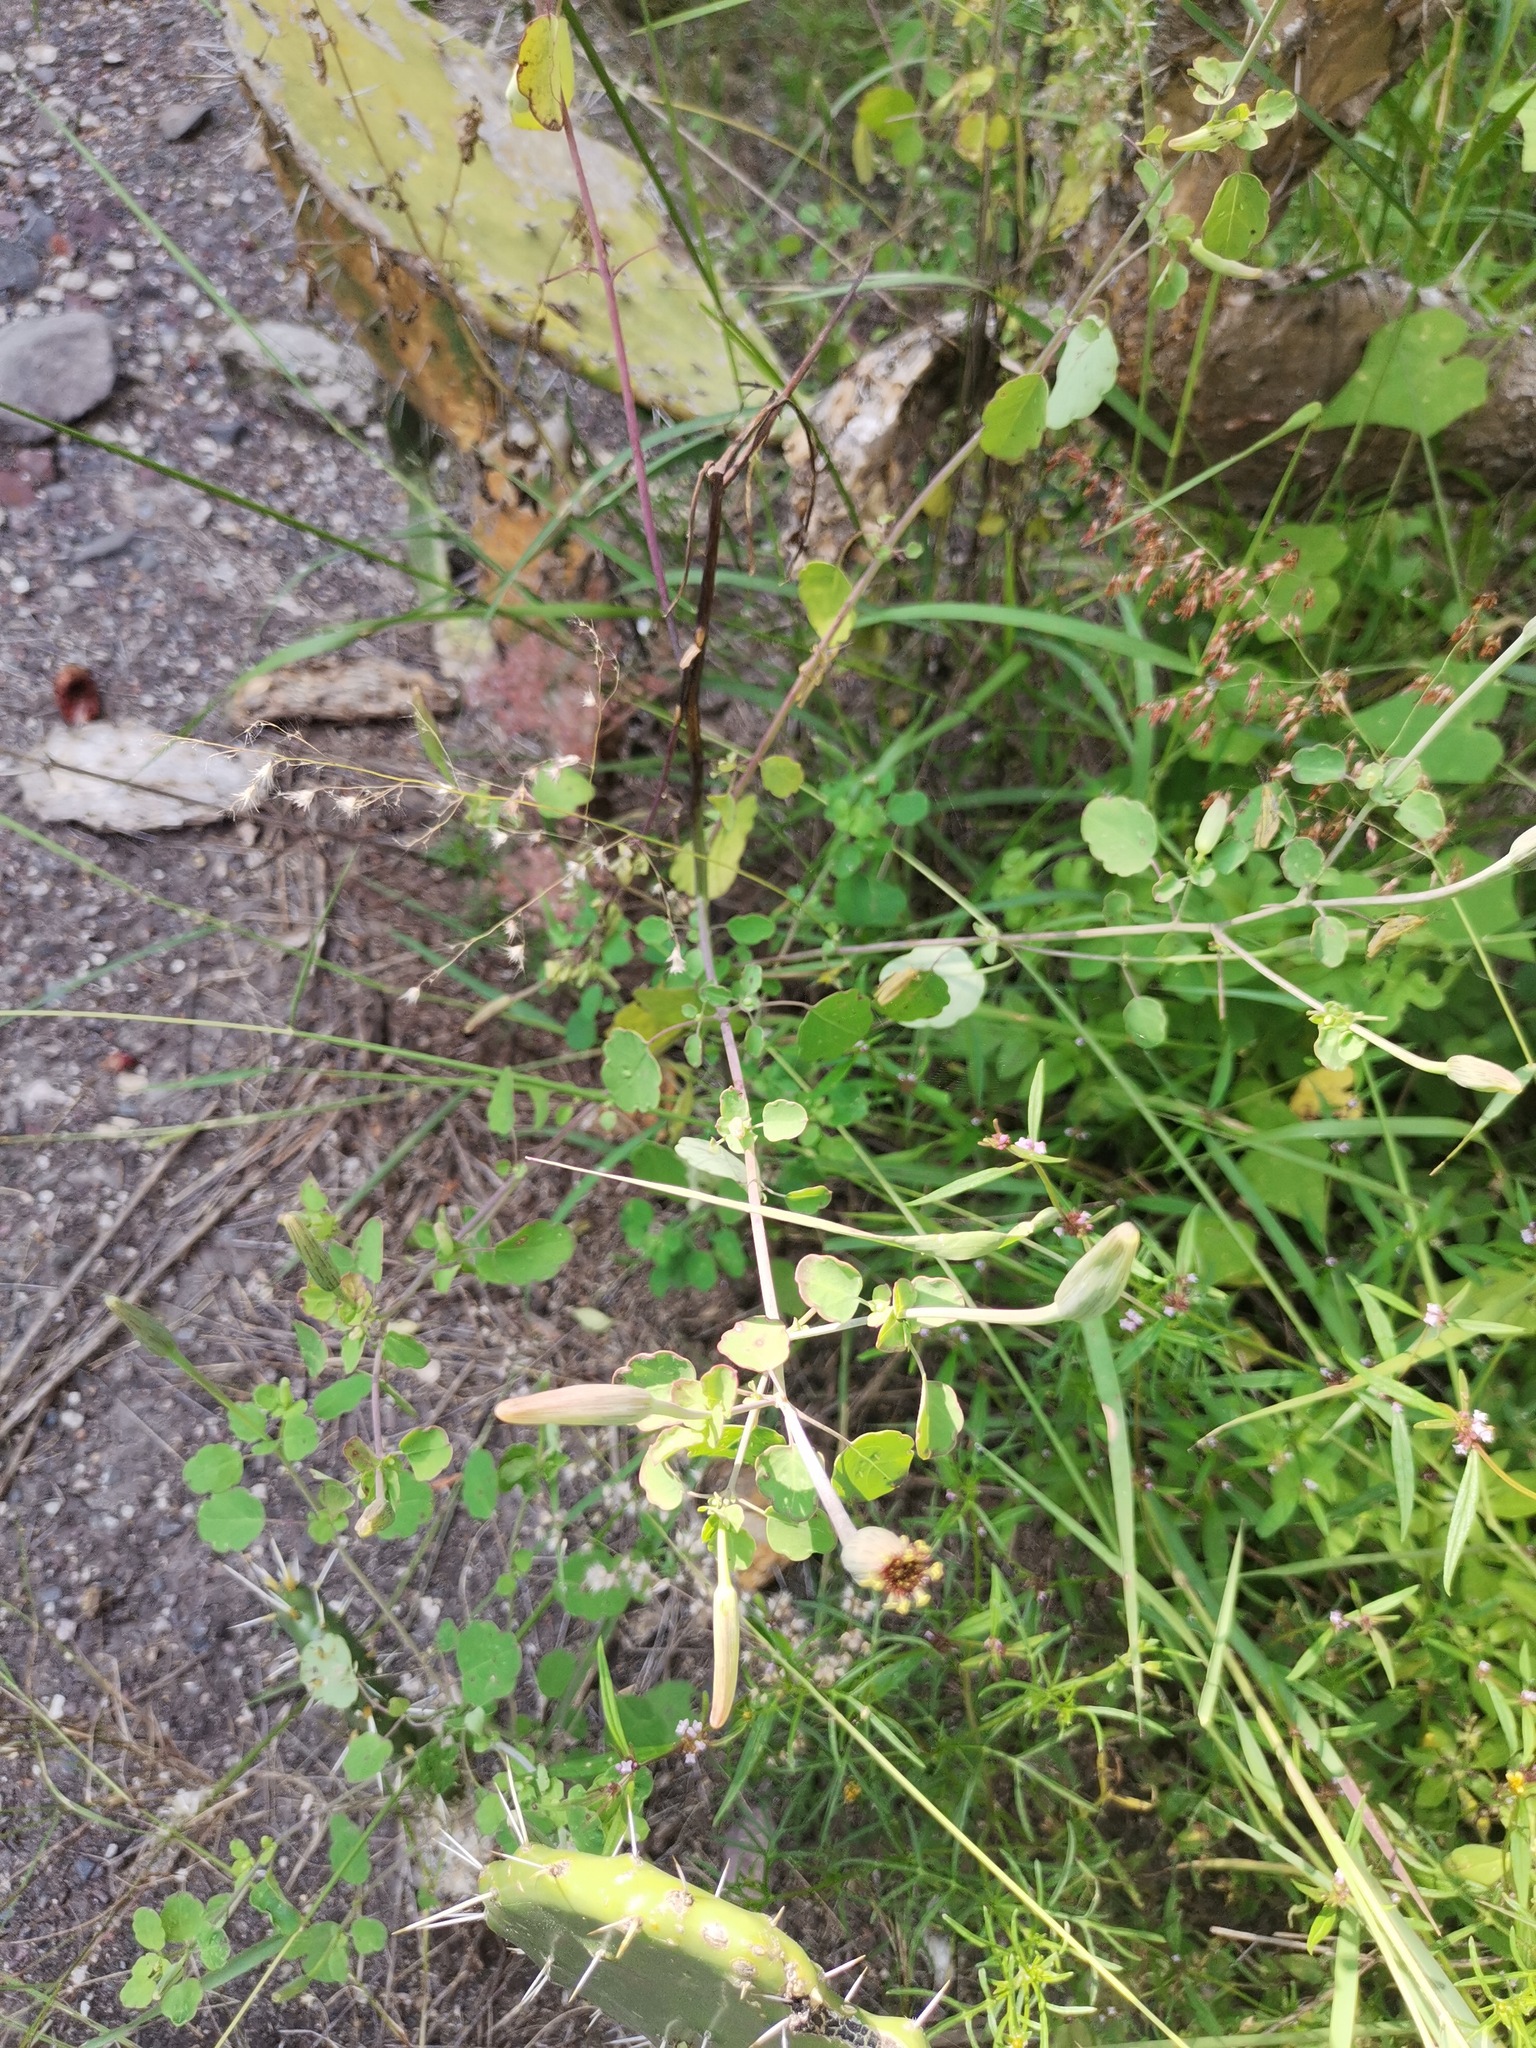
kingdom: Plantae
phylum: Tracheophyta
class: Magnoliopsida
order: Asterales
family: Asteraceae
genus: Porophyllum
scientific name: Porophyllum ruderale
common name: Yerba porosa
